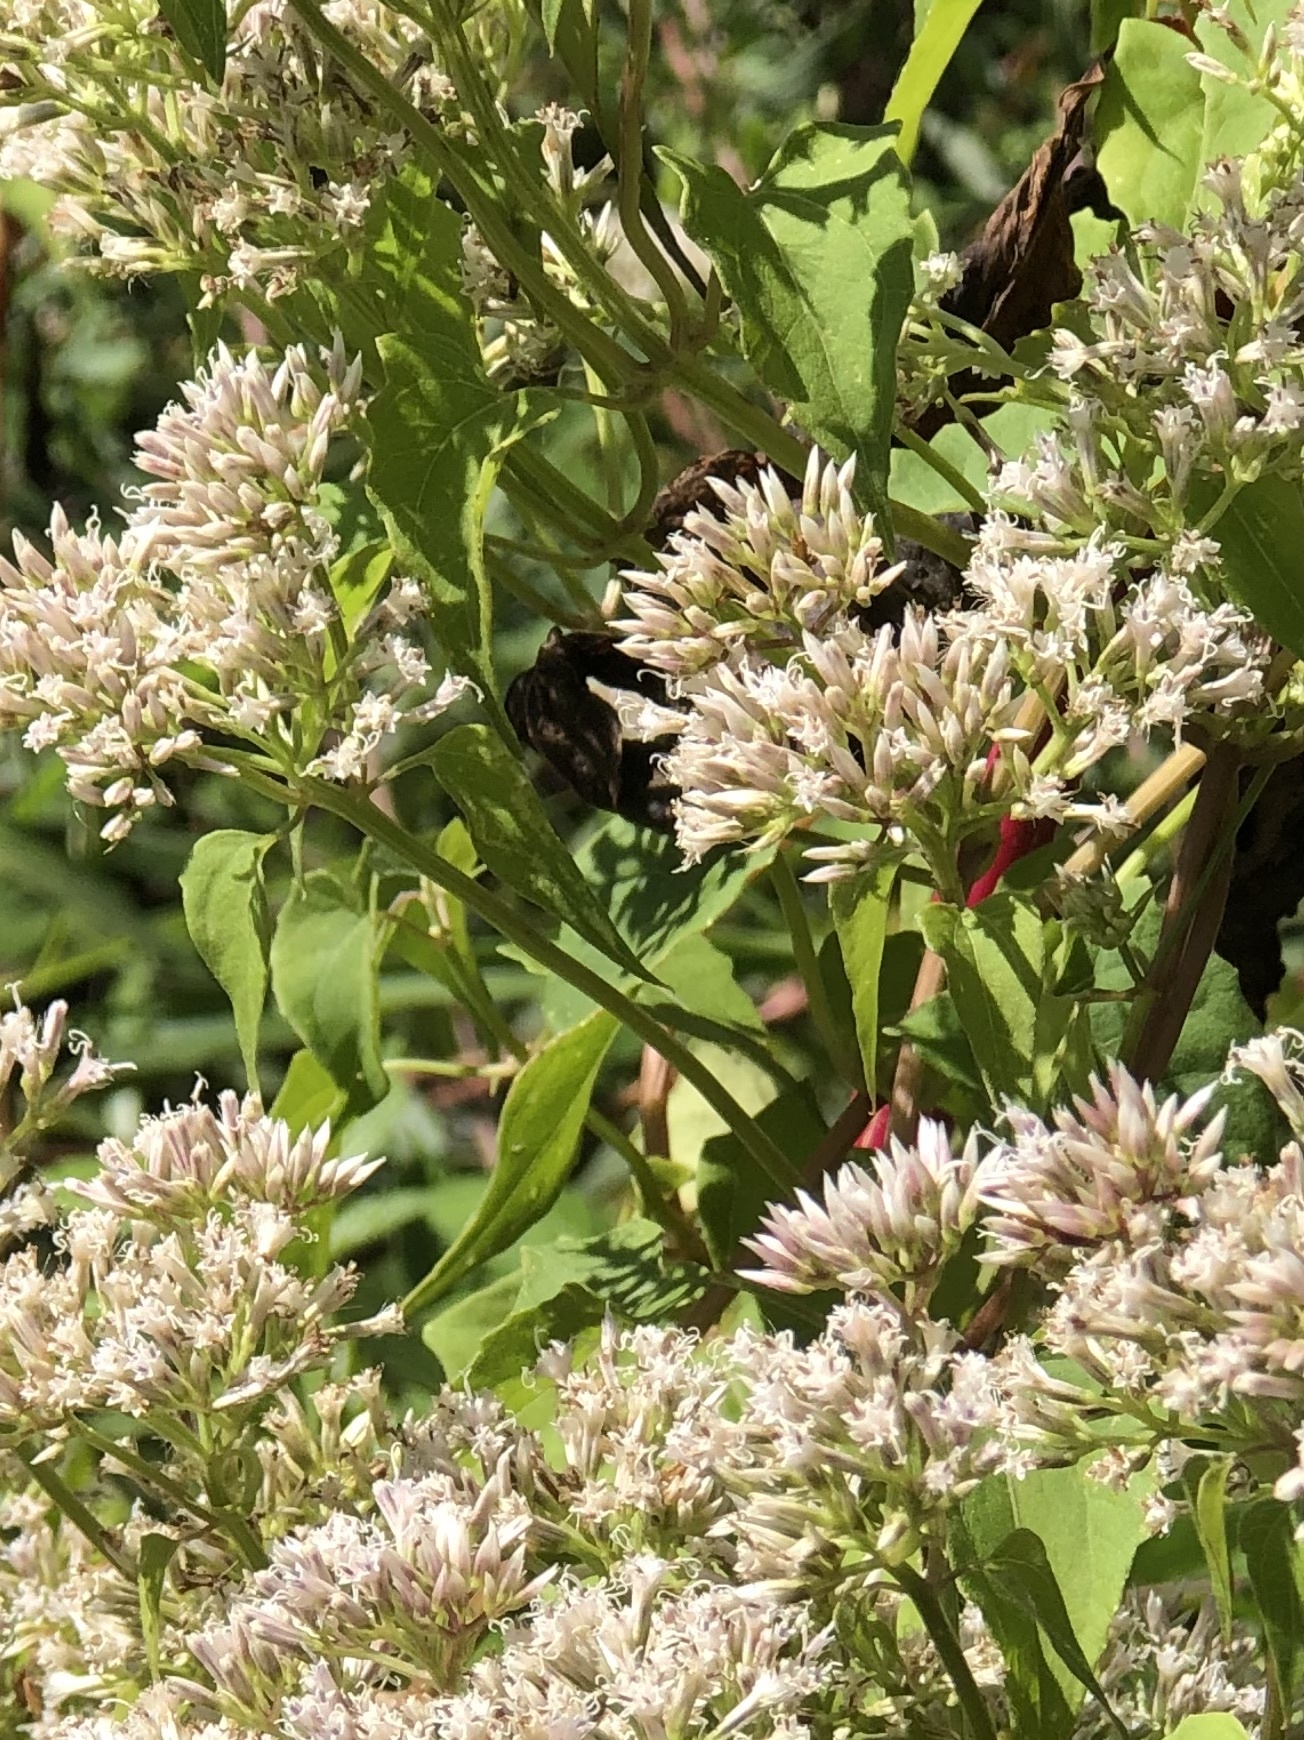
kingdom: Plantae
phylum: Tracheophyta
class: Magnoliopsida
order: Asterales
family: Asteraceae
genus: Mikania
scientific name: Mikania scandens
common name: Climbing hempvine
